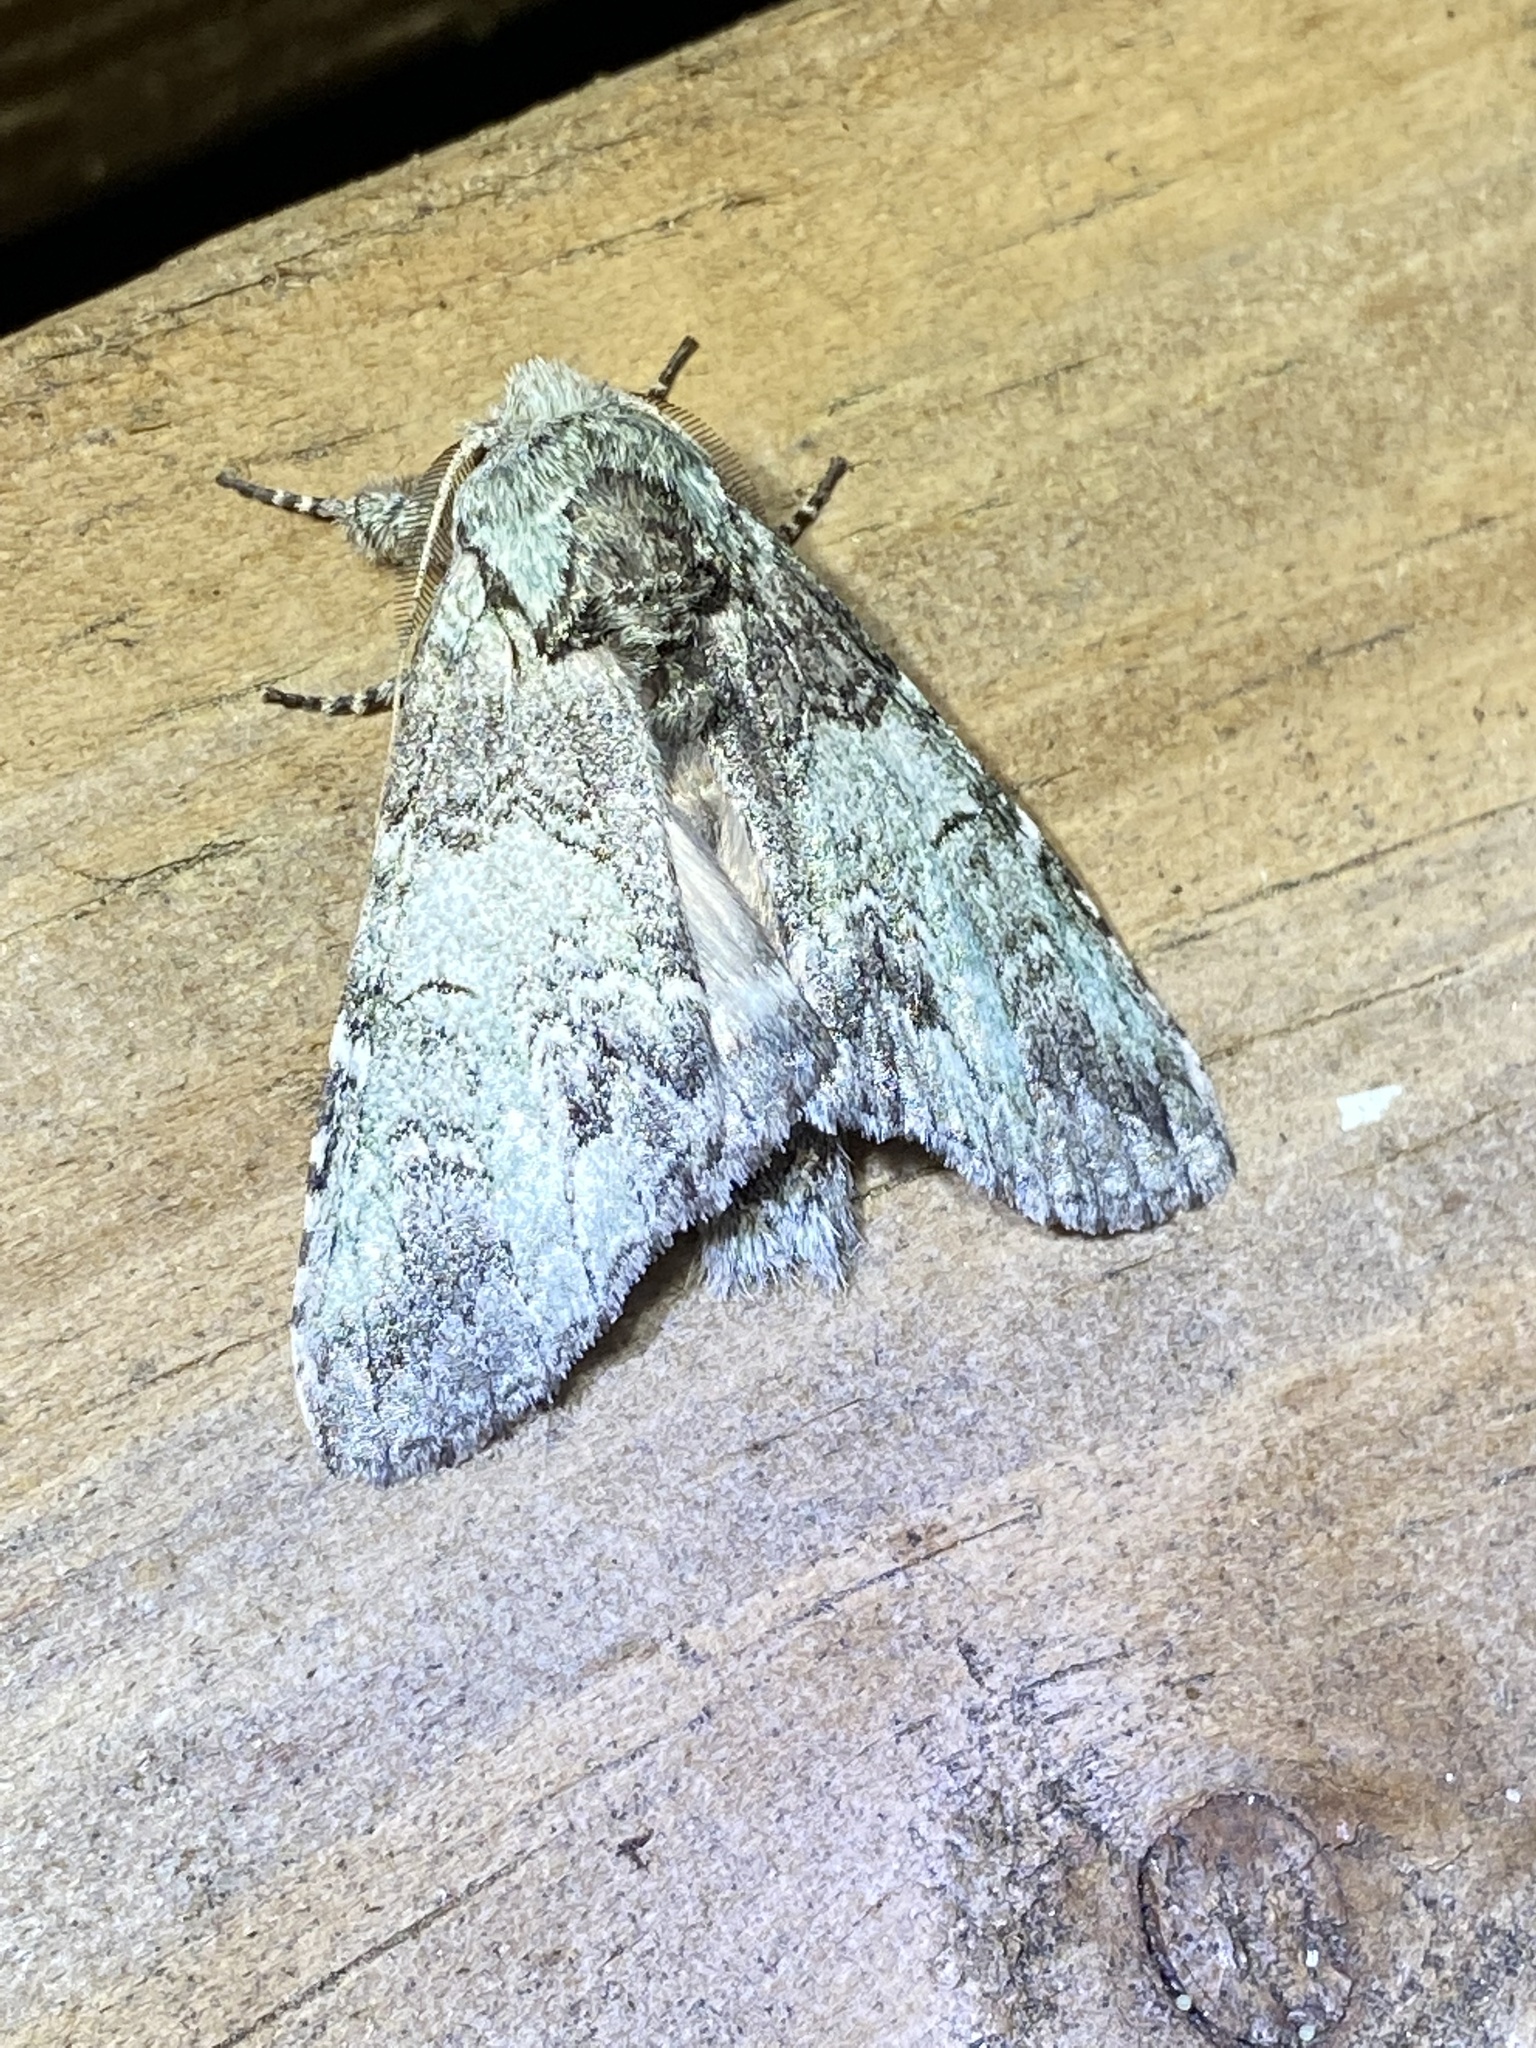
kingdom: Animalia
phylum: Arthropoda
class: Insecta
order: Lepidoptera
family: Notodontidae
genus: Macrurocampa
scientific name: Macrurocampa marthesia
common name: Mottled prominent
